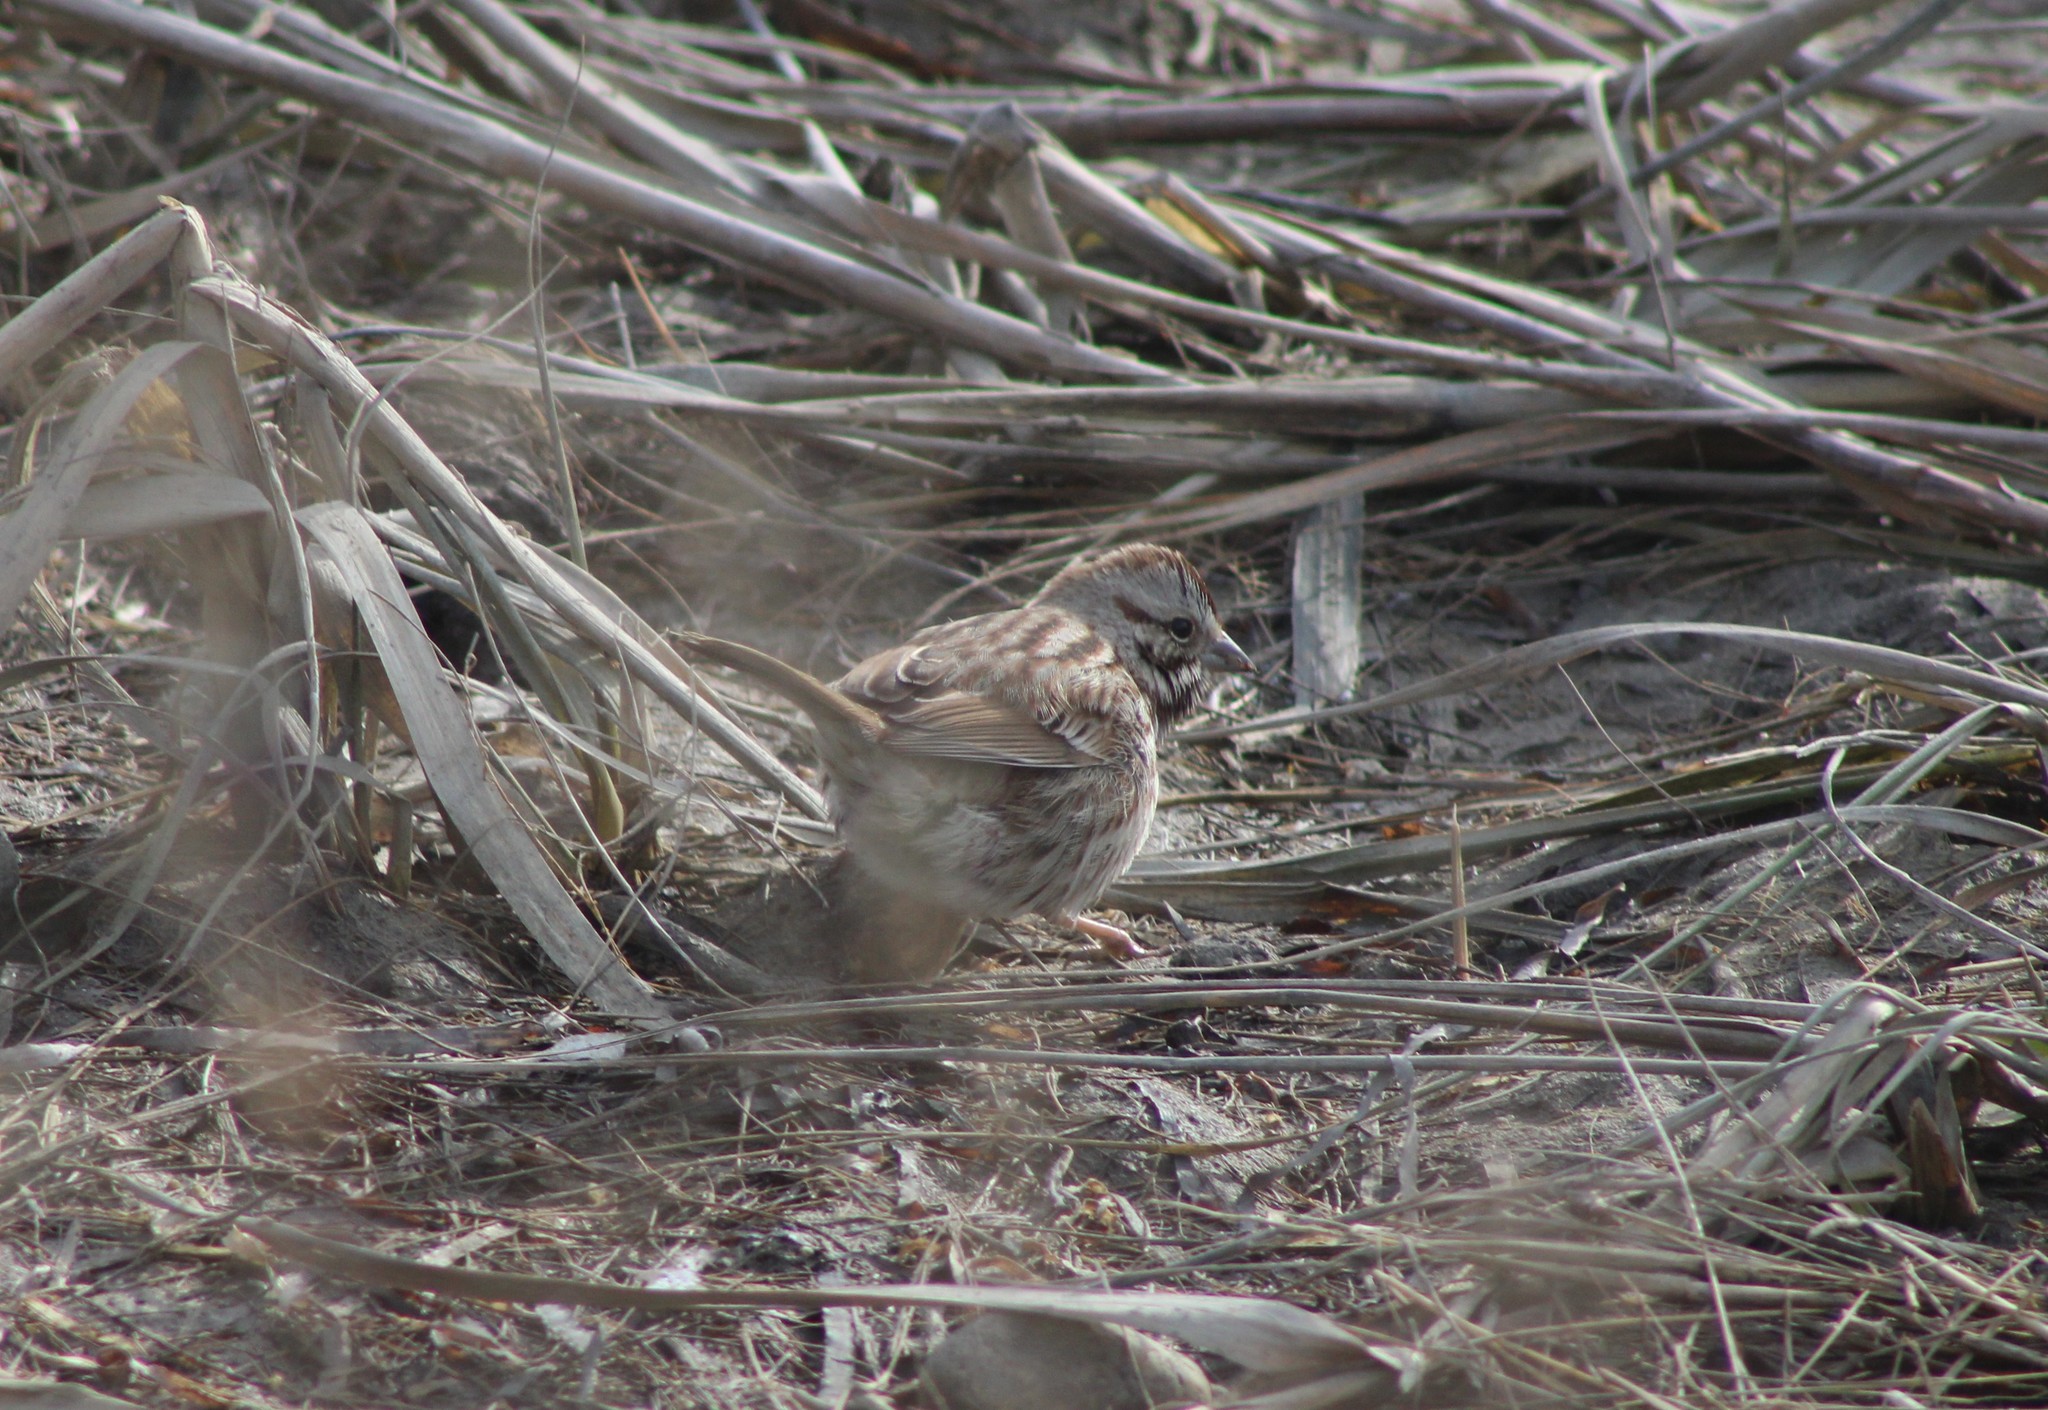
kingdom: Animalia
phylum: Chordata
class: Aves
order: Passeriformes
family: Passerellidae
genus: Melospiza
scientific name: Melospiza melodia
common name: Song sparrow
